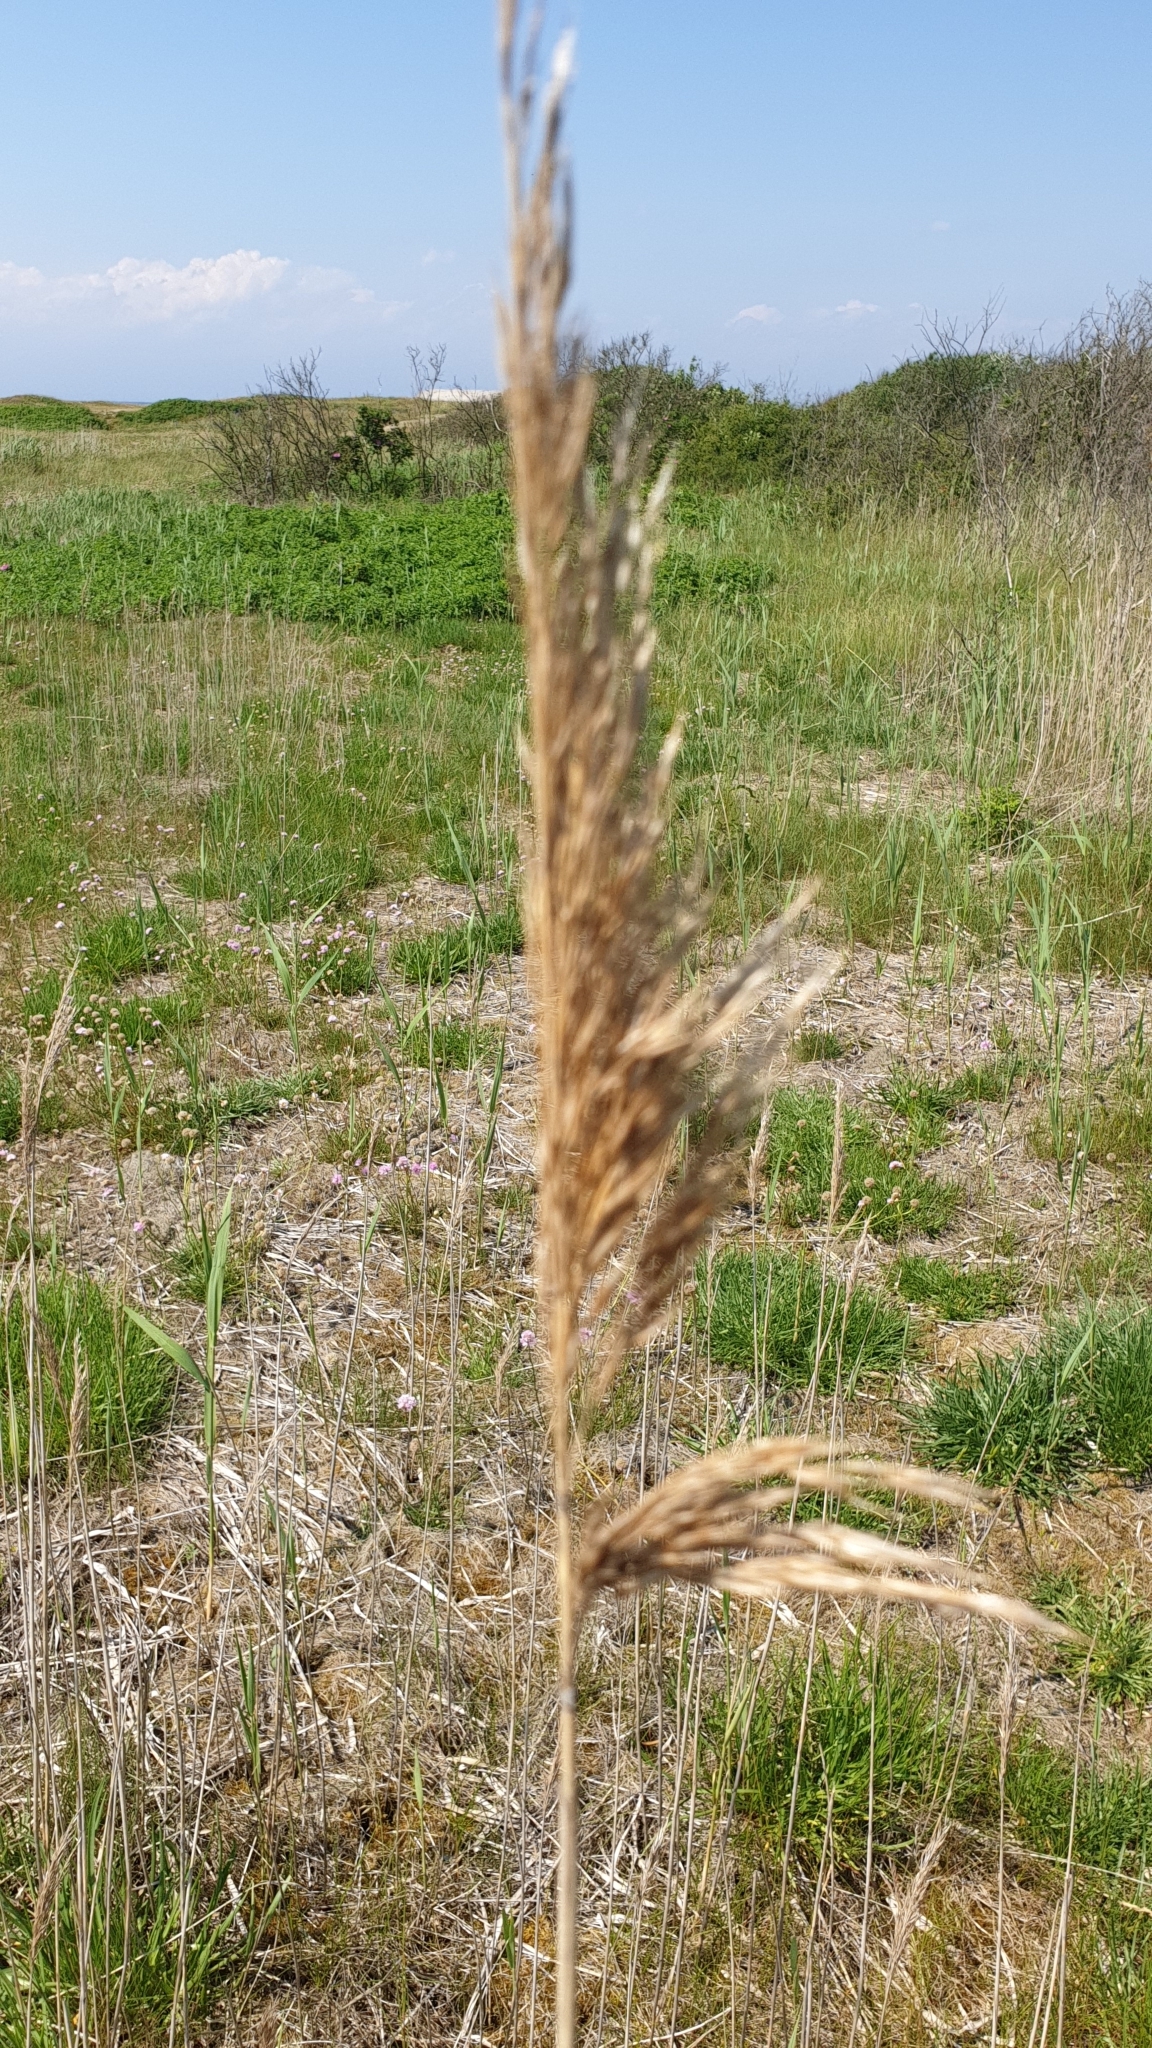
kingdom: Plantae
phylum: Tracheophyta
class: Liliopsida
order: Poales
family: Poaceae
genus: Phragmites
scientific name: Phragmites australis
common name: Common reed
